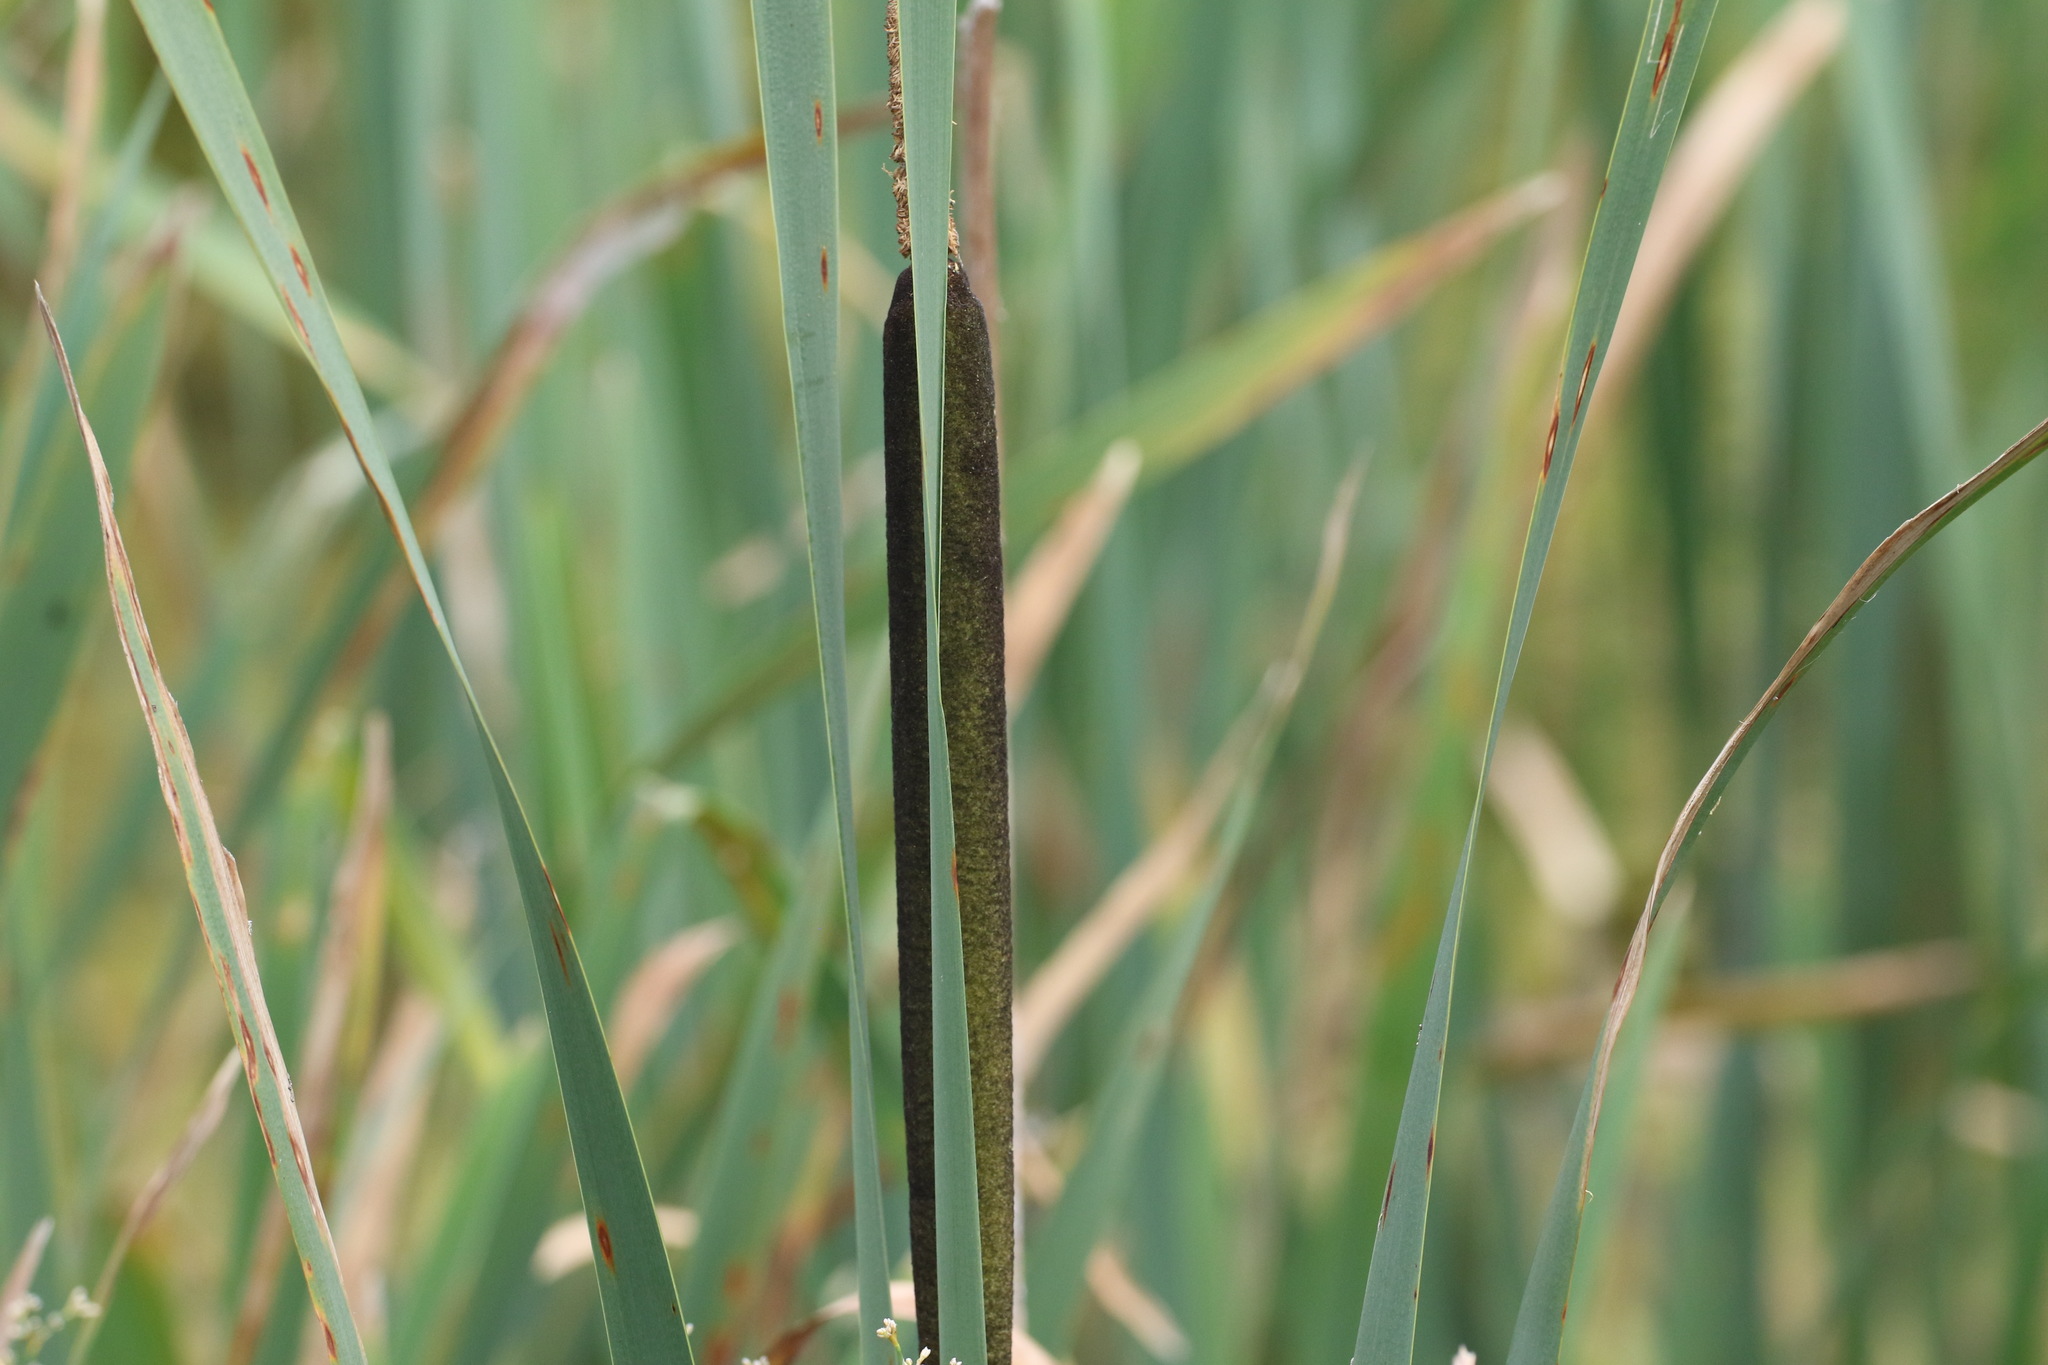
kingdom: Plantae
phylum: Tracheophyta
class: Liliopsida
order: Poales
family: Typhaceae
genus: Typha
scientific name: Typha latifolia
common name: Broadleaf cattail
